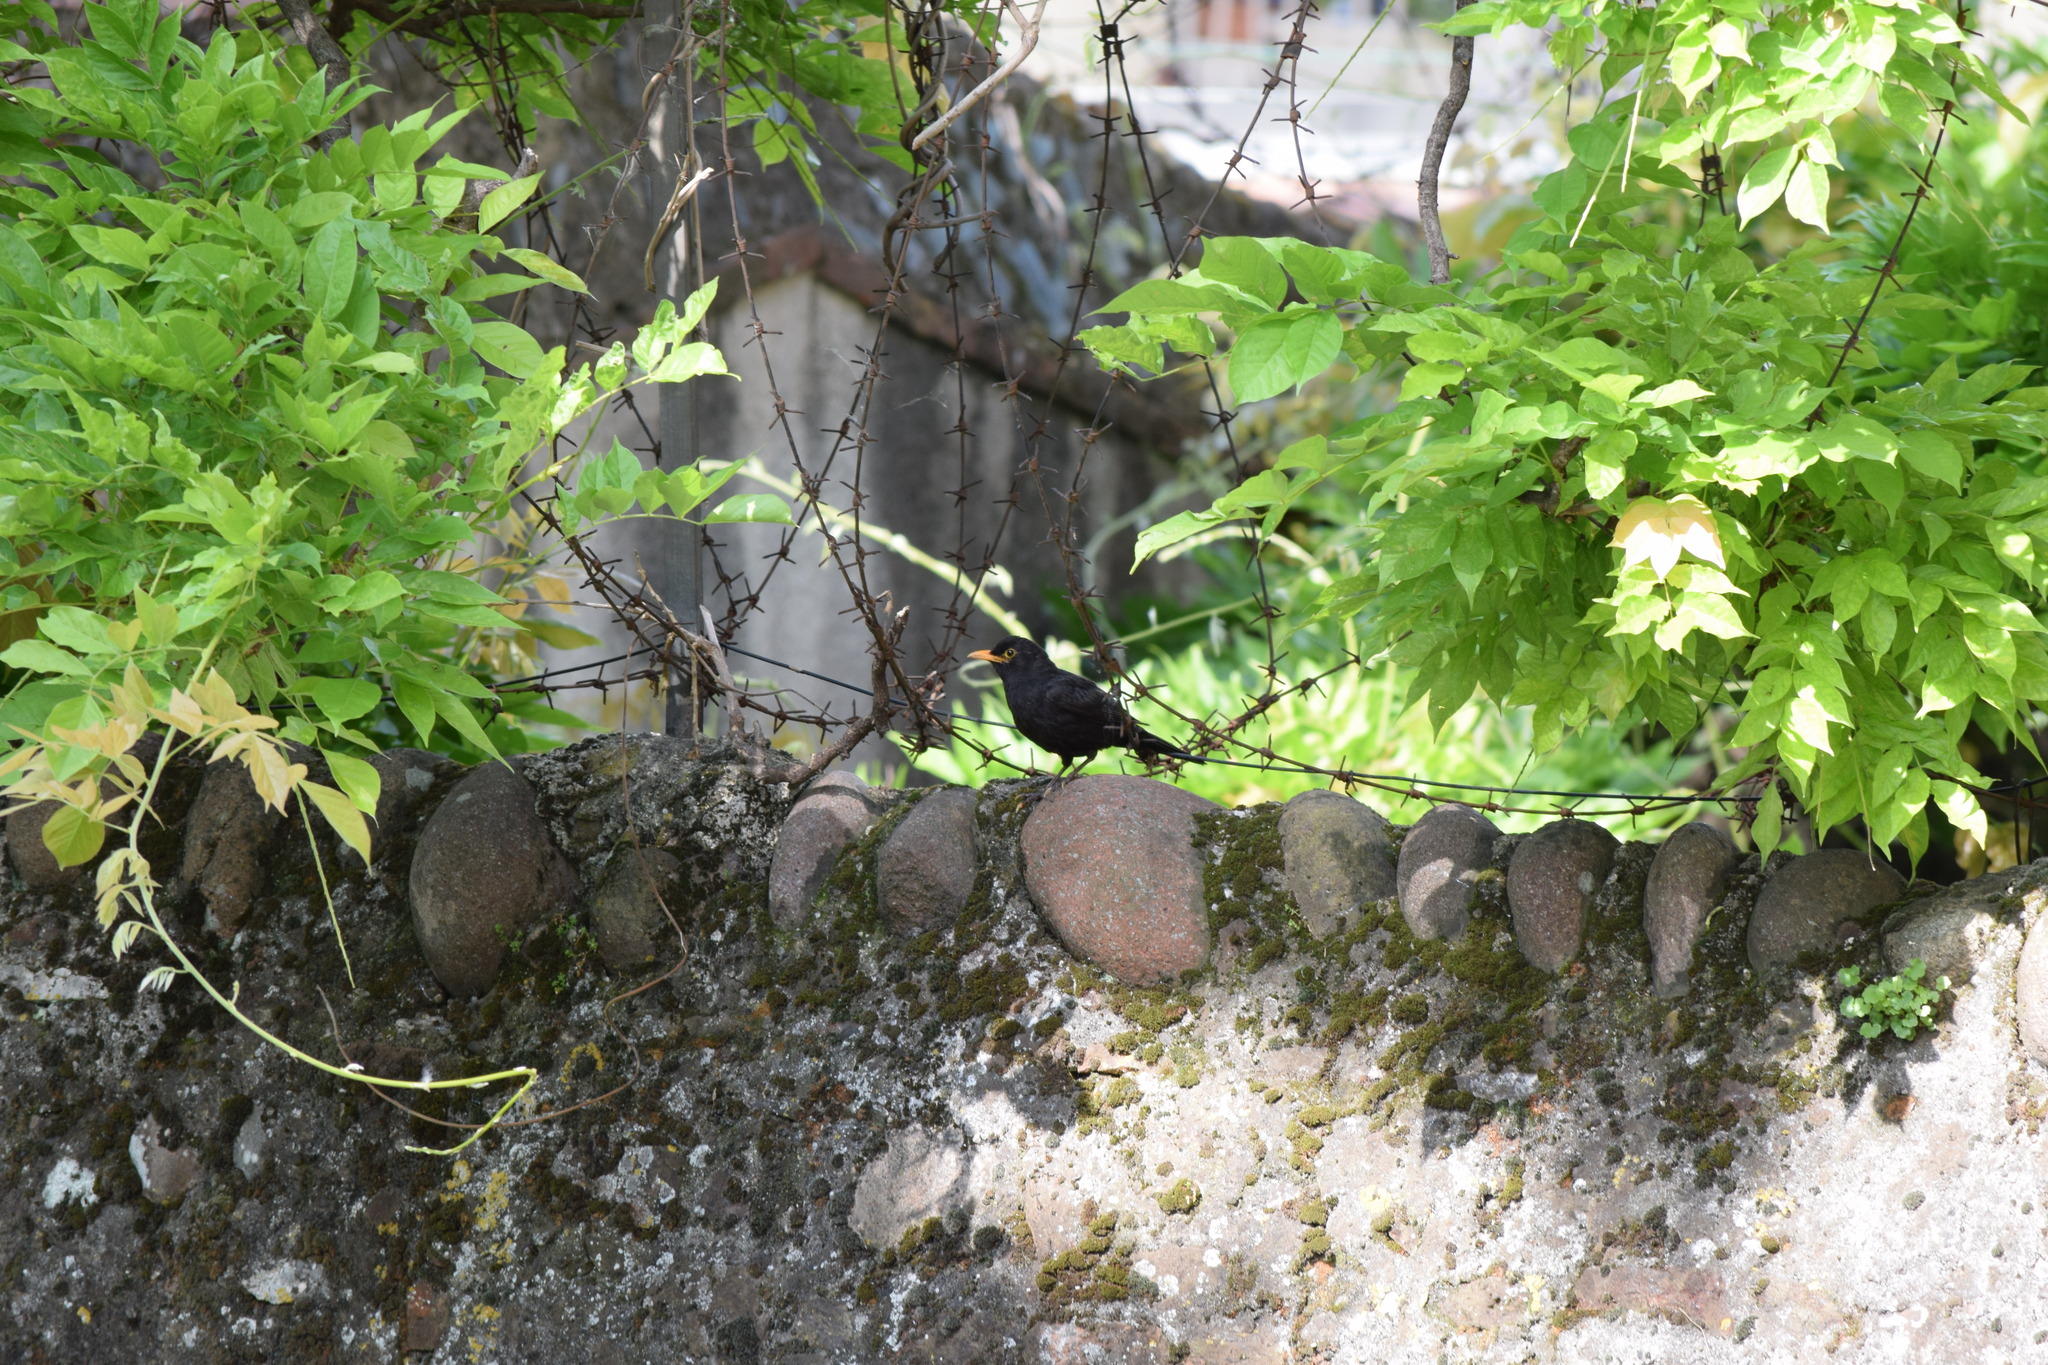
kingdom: Animalia
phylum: Chordata
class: Aves
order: Passeriformes
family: Turdidae
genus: Turdus
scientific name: Turdus merula
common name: Common blackbird
